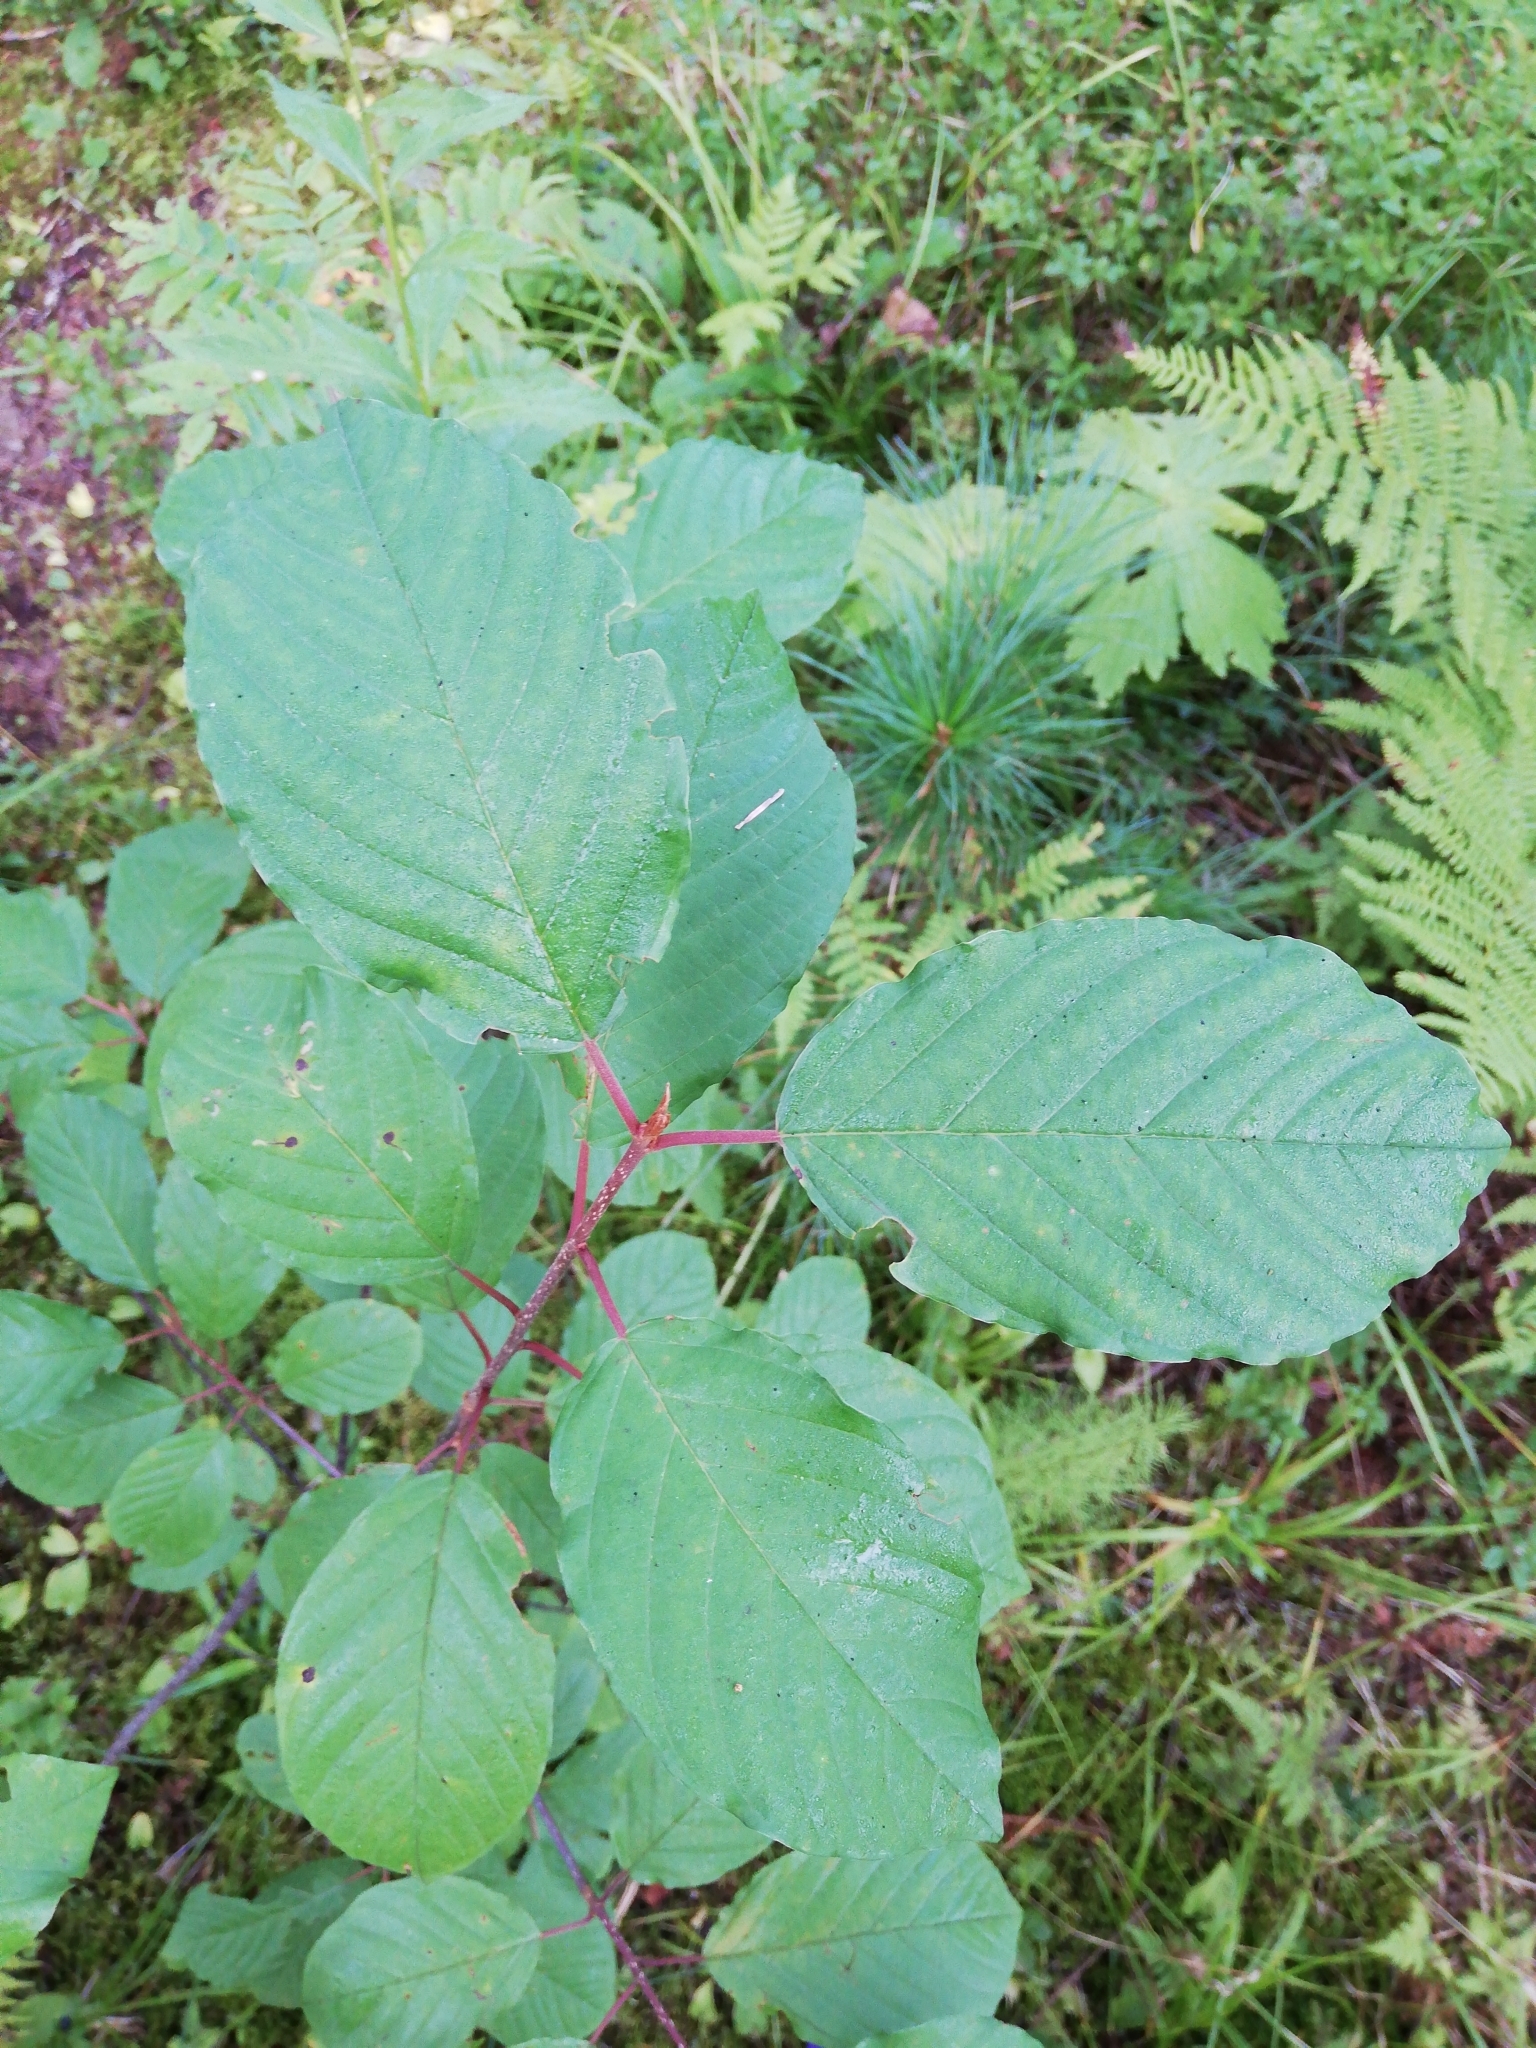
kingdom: Plantae
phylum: Tracheophyta
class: Magnoliopsida
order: Rosales
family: Rhamnaceae
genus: Frangula
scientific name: Frangula alnus
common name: Alder buckthorn
